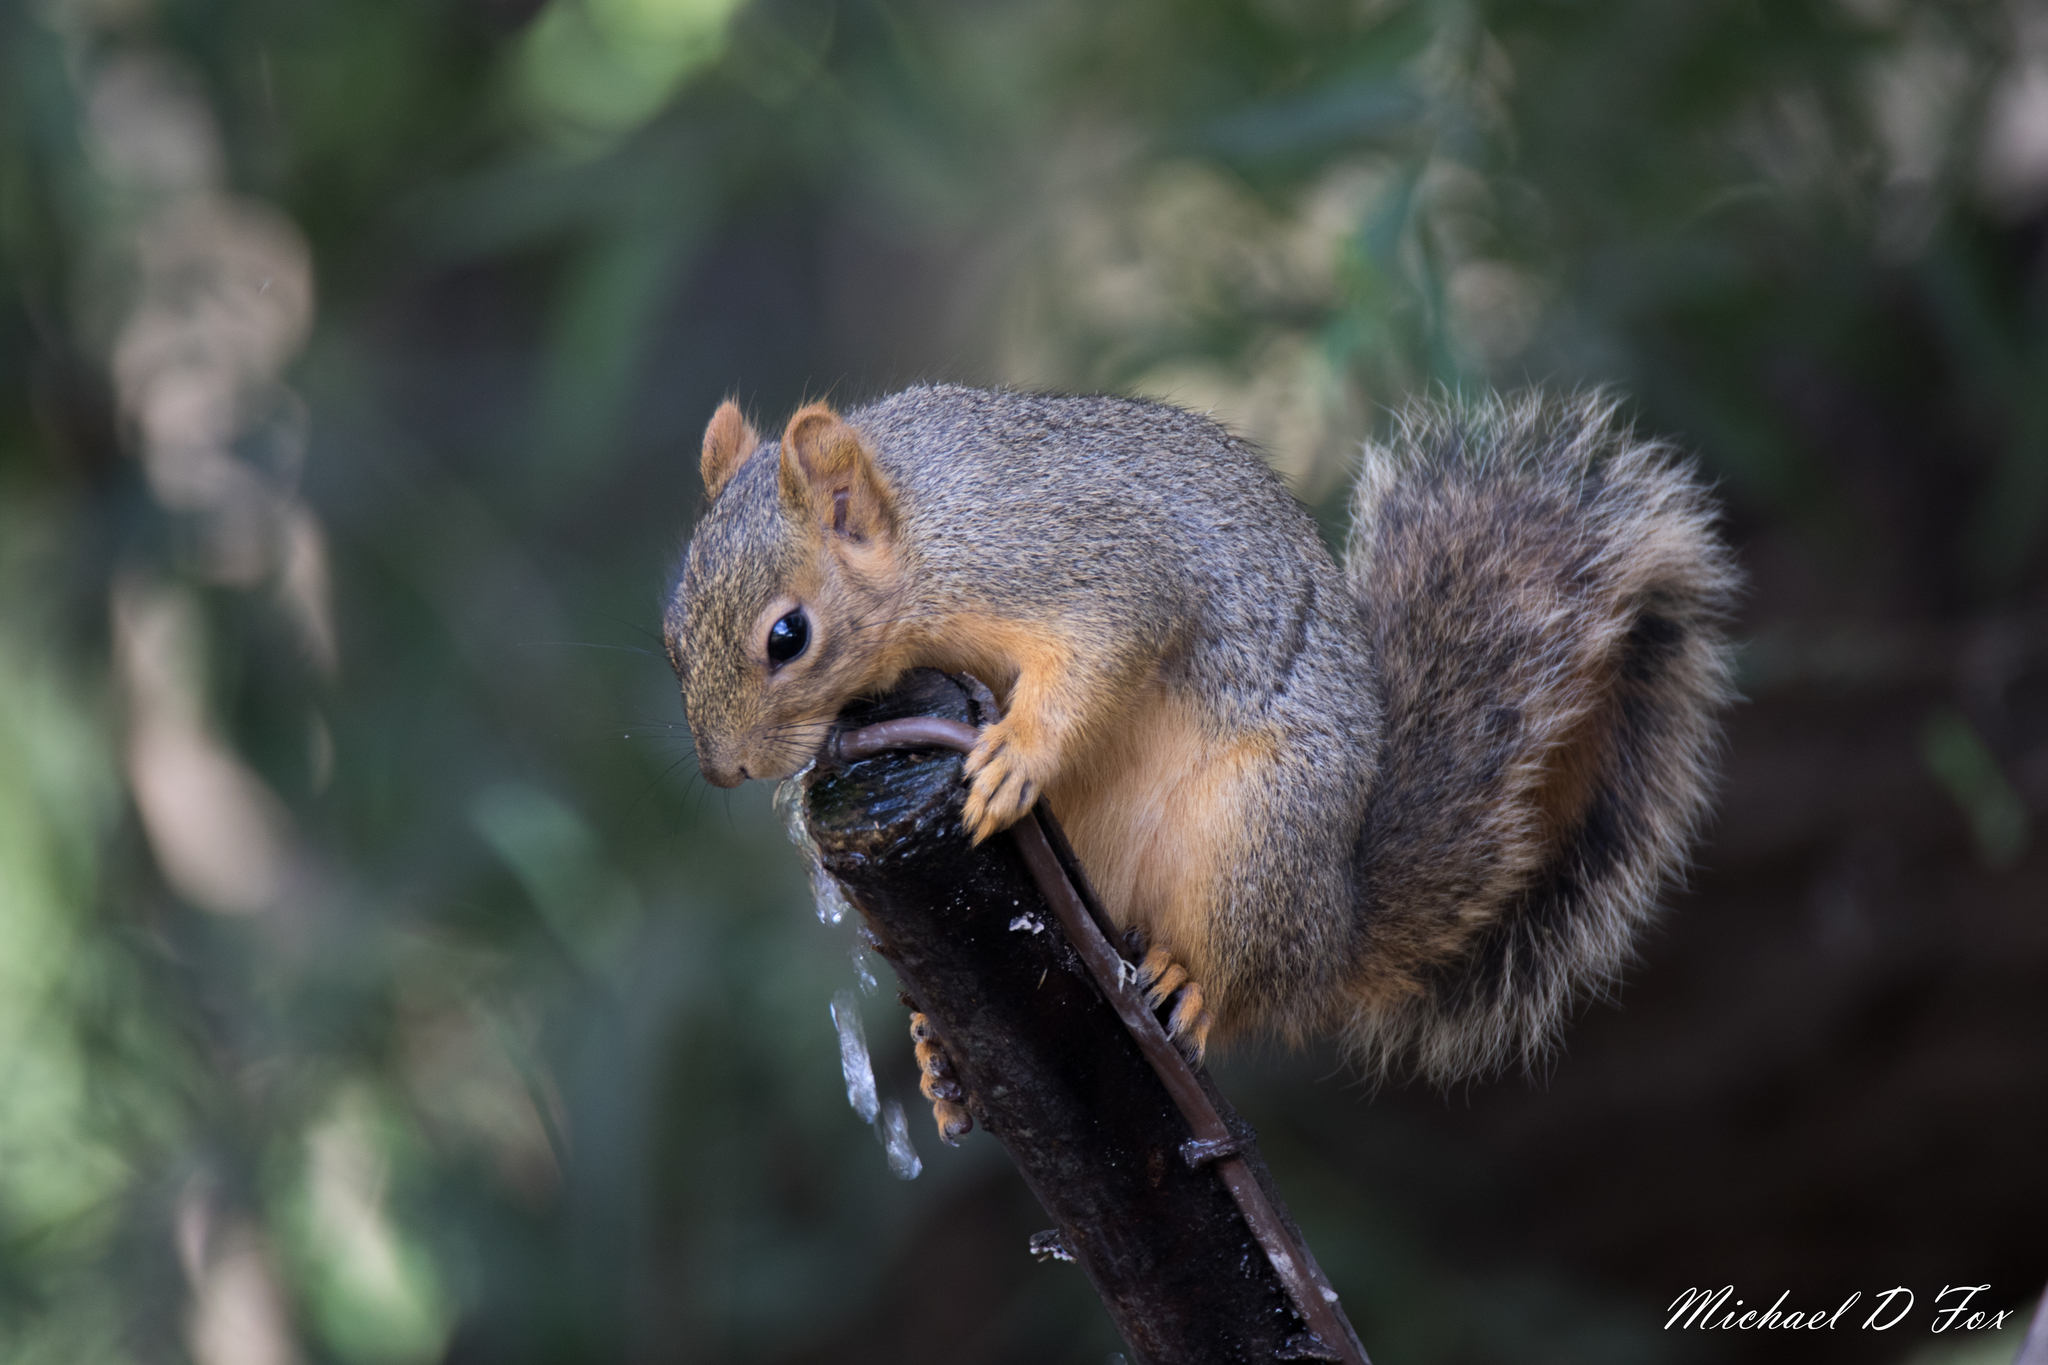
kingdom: Animalia
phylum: Chordata
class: Mammalia
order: Rodentia
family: Sciuridae
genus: Sciurus
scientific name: Sciurus niger
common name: Fox squirrel
